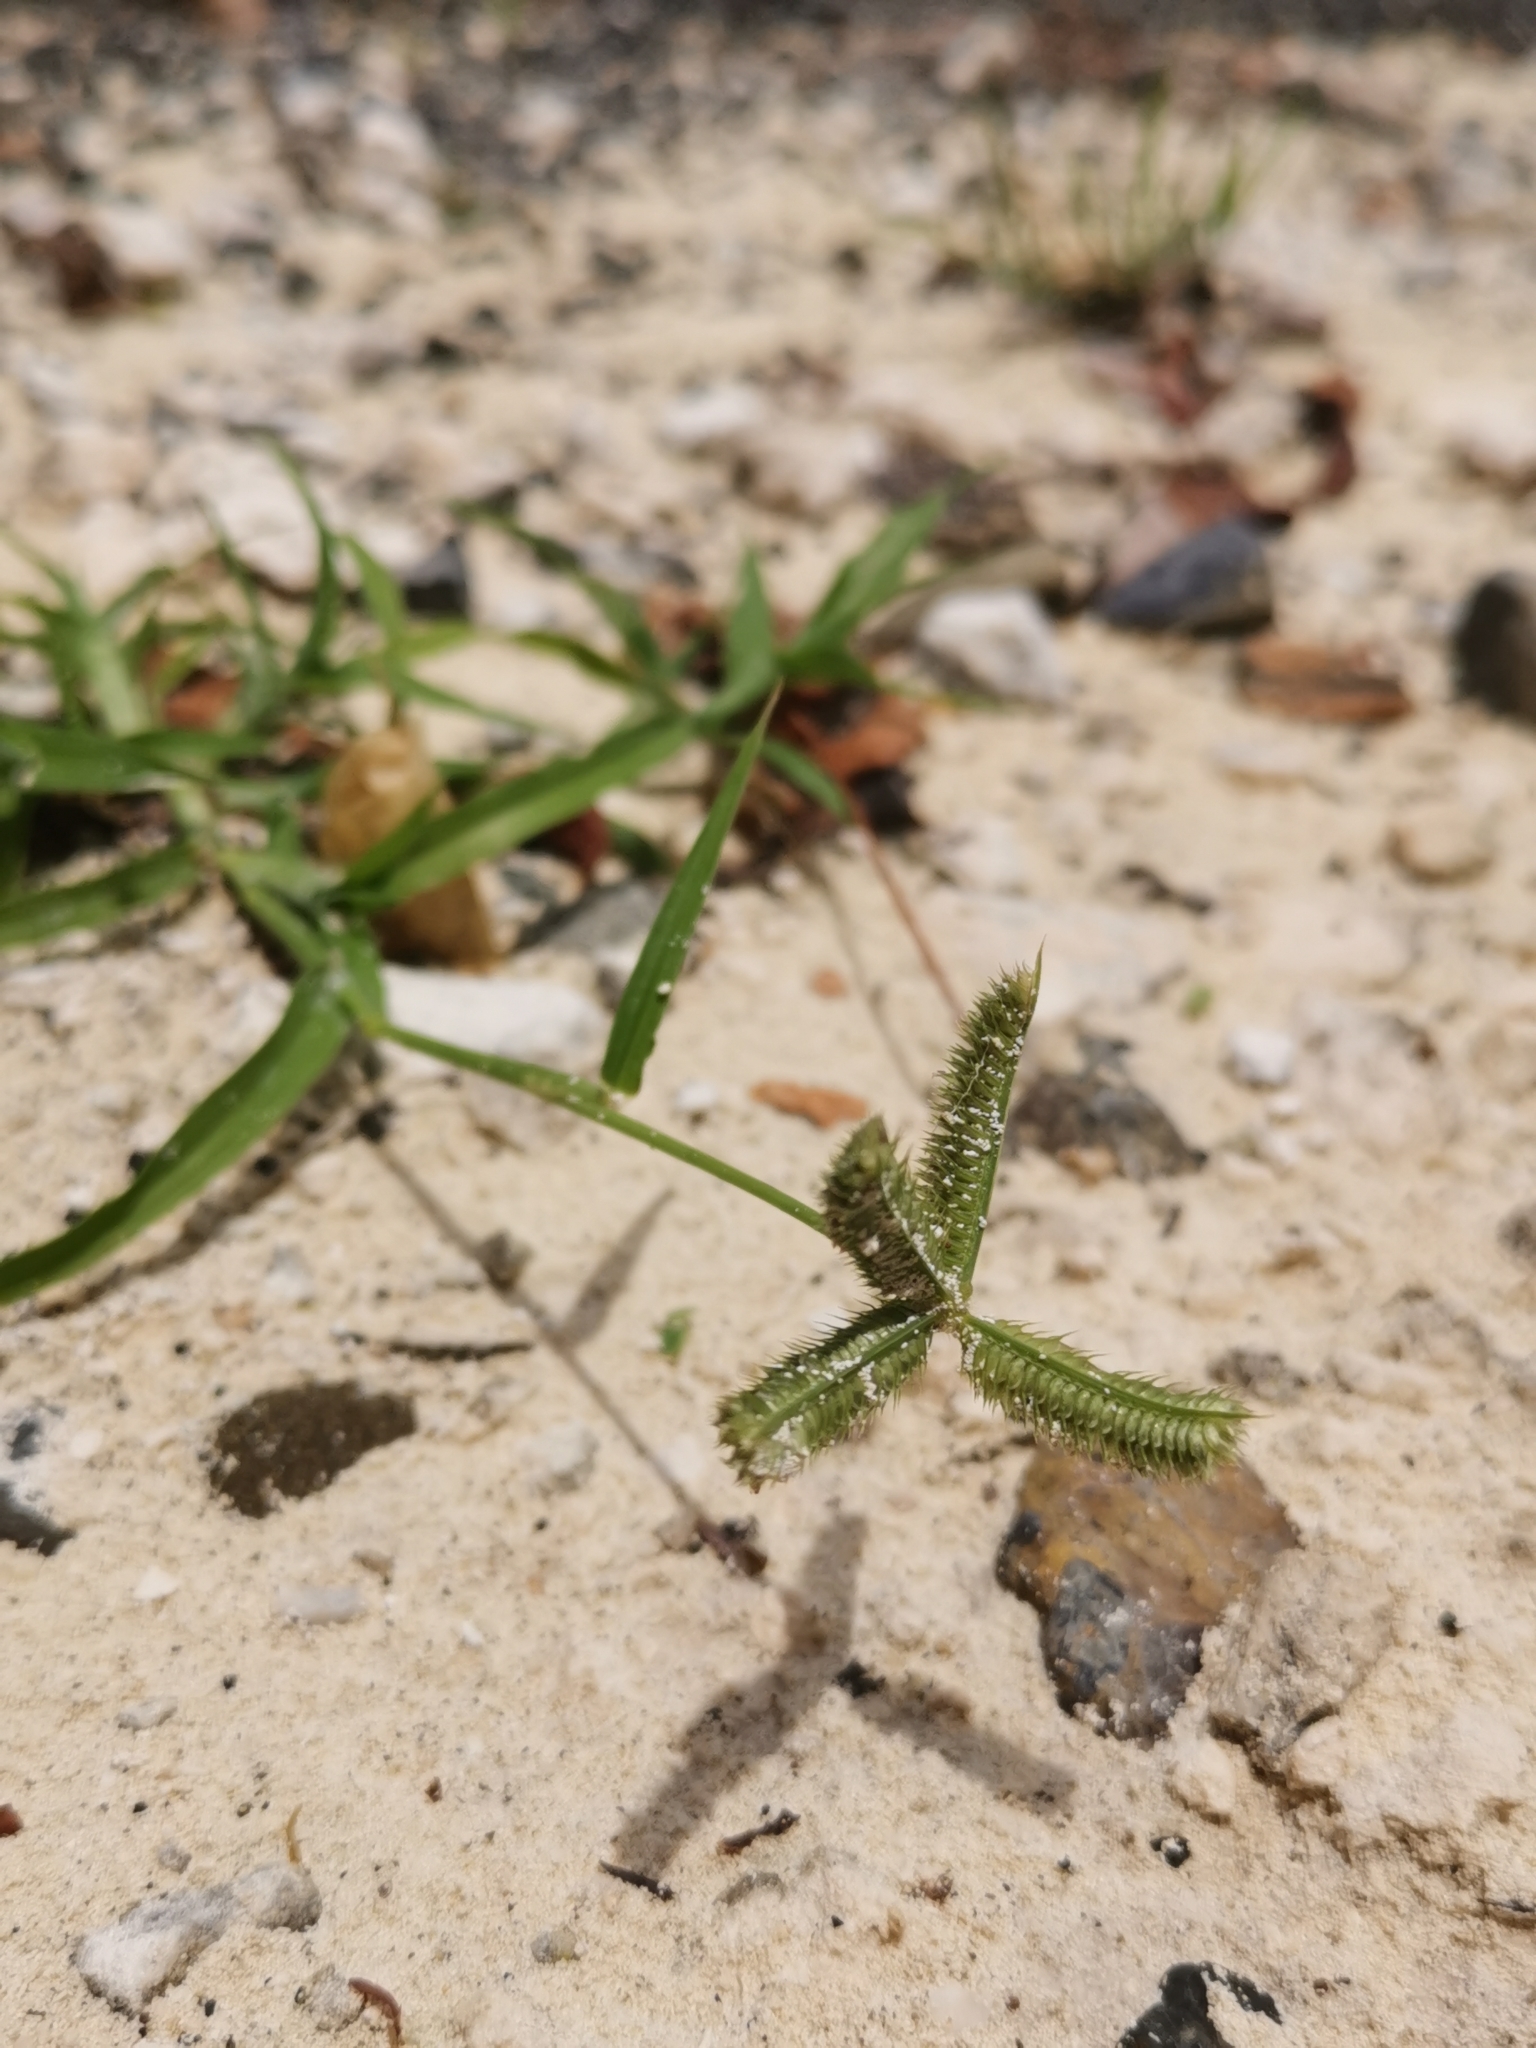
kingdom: Plantae
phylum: Tracheophyta
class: Liliopsida
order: Poales
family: Poaceae
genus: Dactyloctenium
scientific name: Dactyloctenium aegyptium
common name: Egyptian grass
